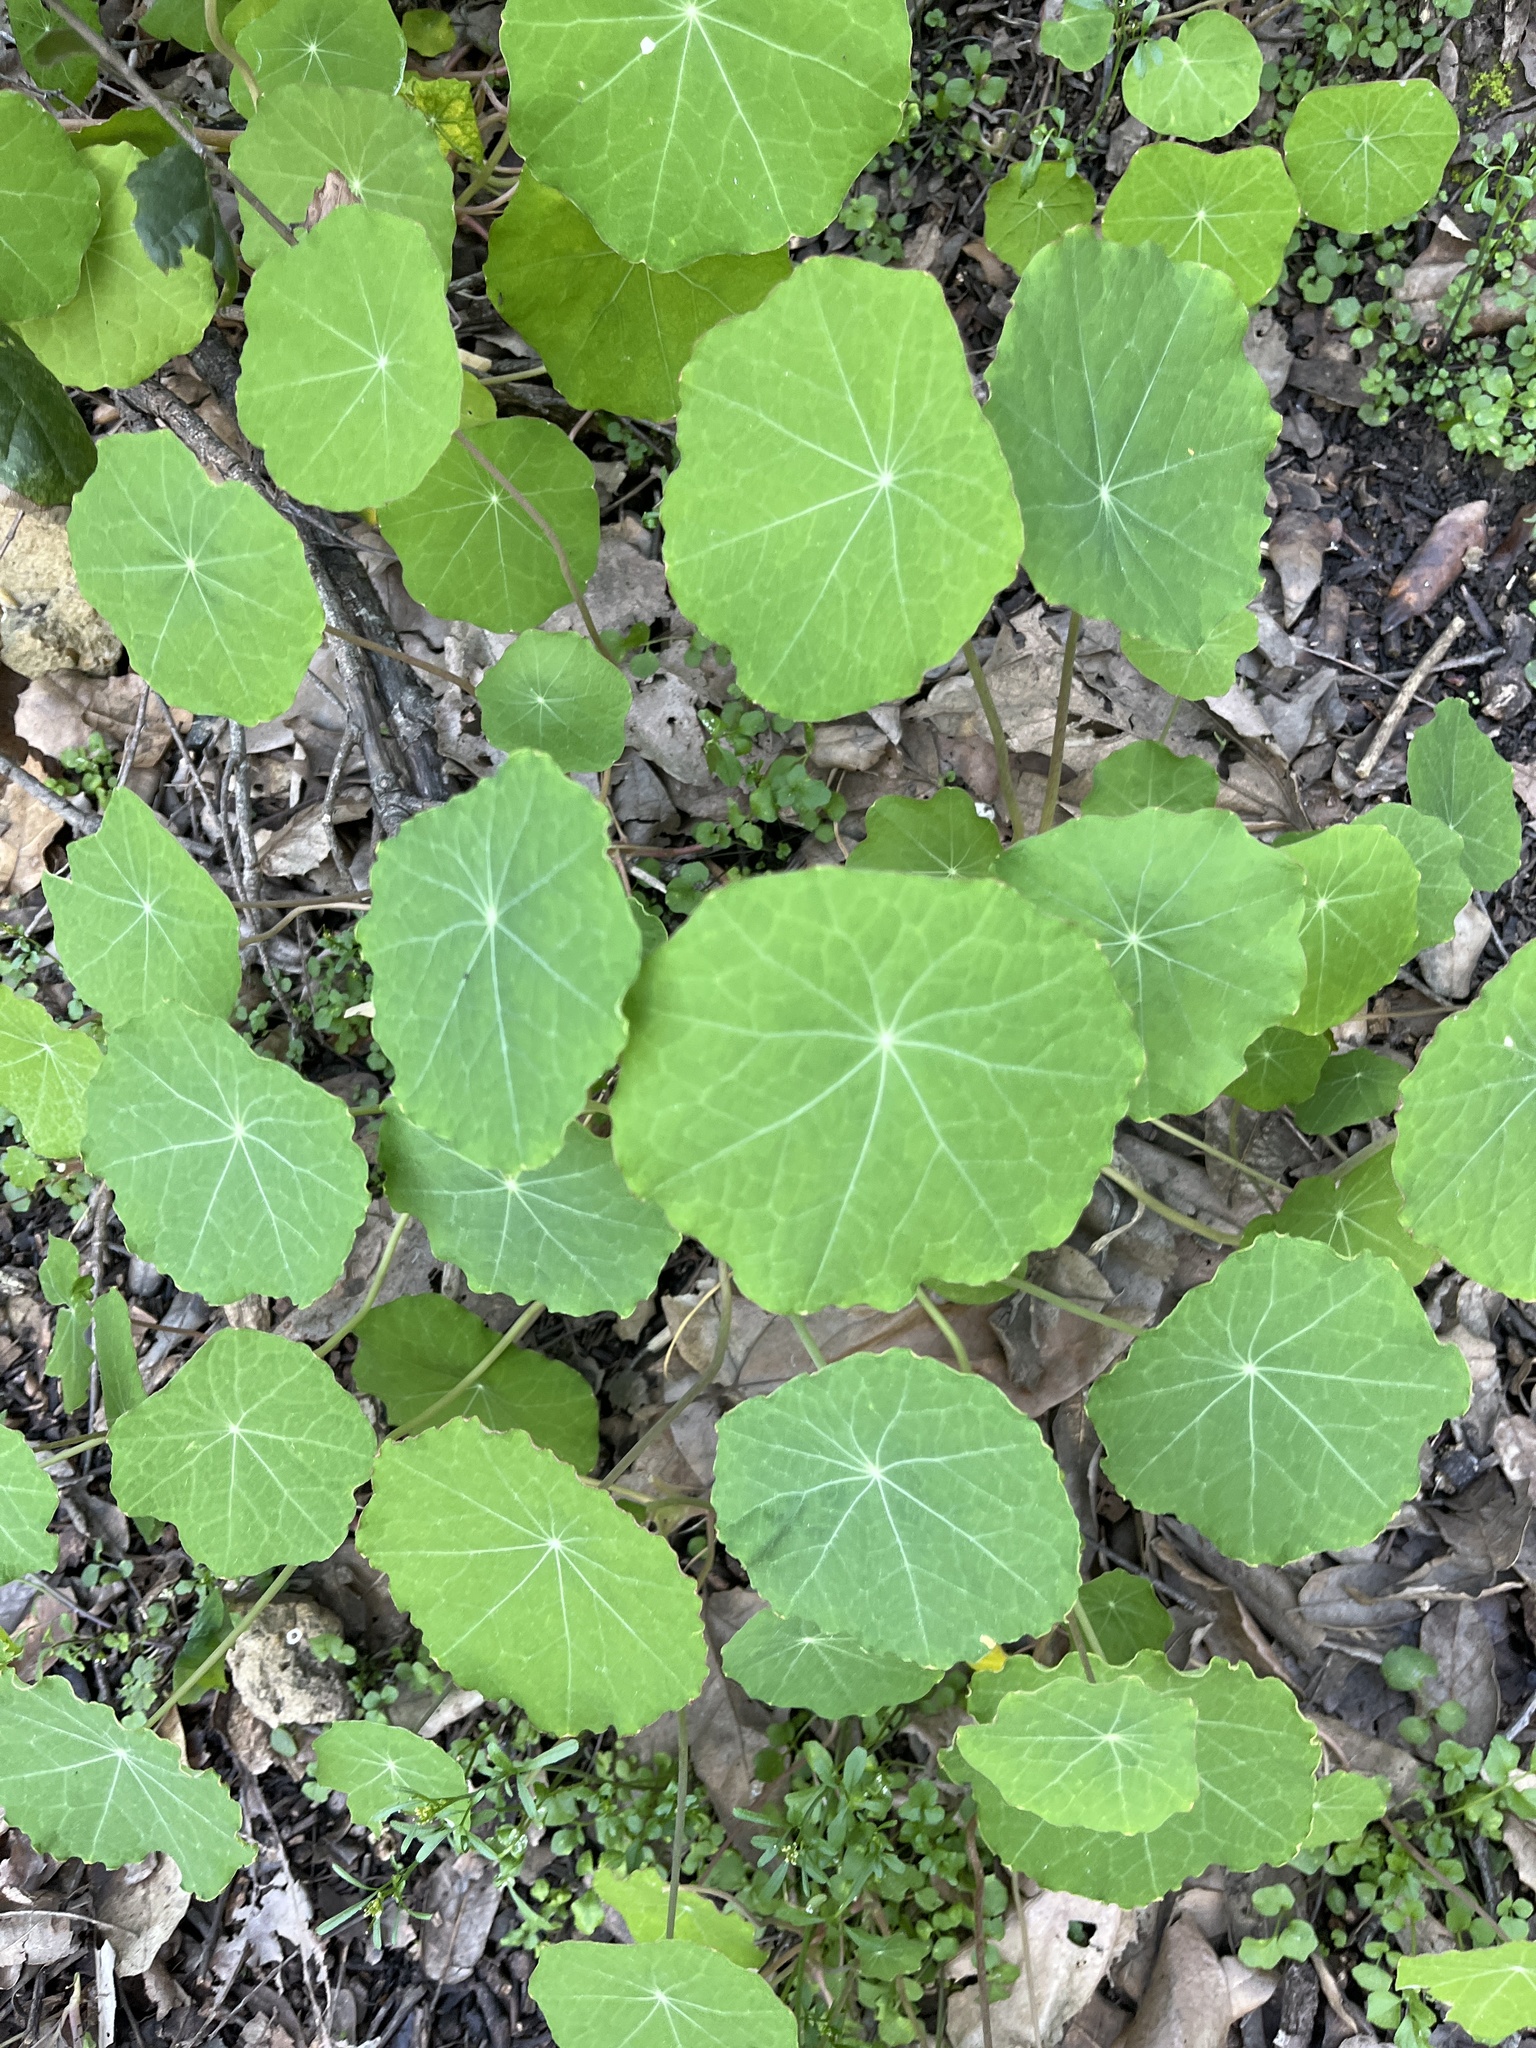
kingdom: Plantae
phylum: Tracheophyta
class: Magnoliopsida
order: Brassicales
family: Tropaeolaceae
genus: Tropaeolum
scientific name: Tropaeolum majus
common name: Nasturtium
